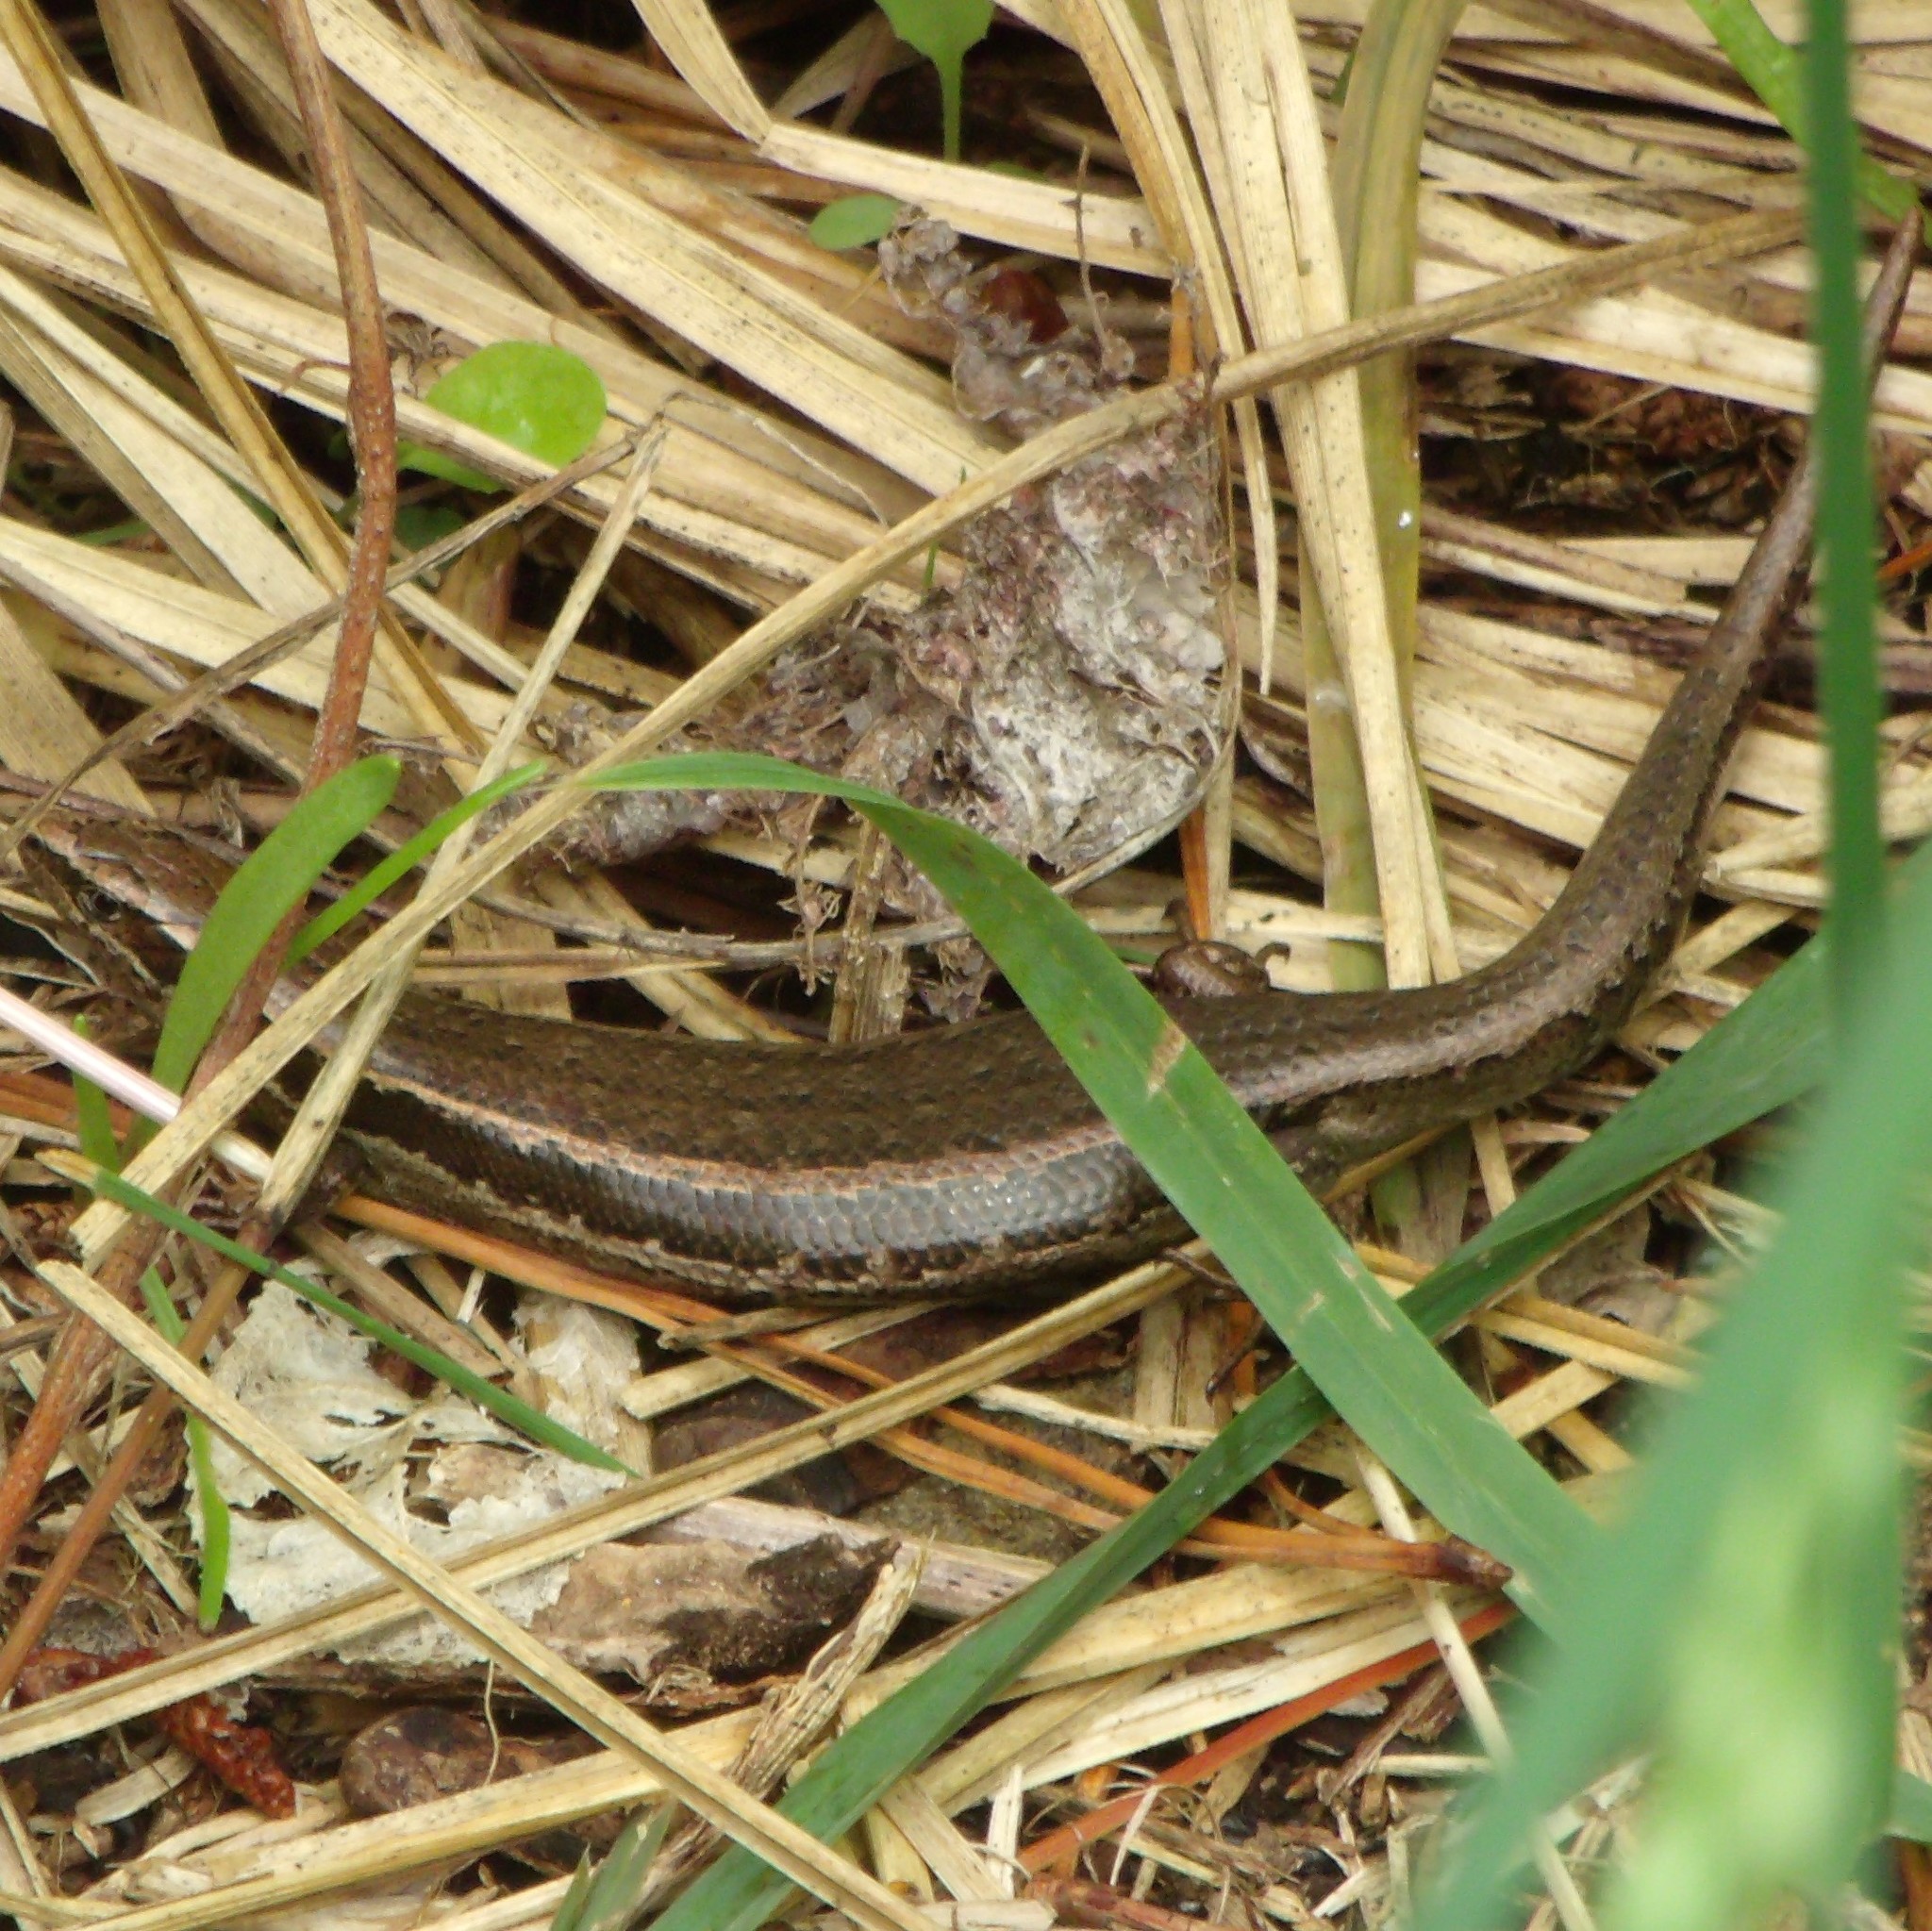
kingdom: Animalia
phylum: Chordata
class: Squamata
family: Scincidae
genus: Oligosoma
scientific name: Oligosoma polychroma
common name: Common new zealand skink
